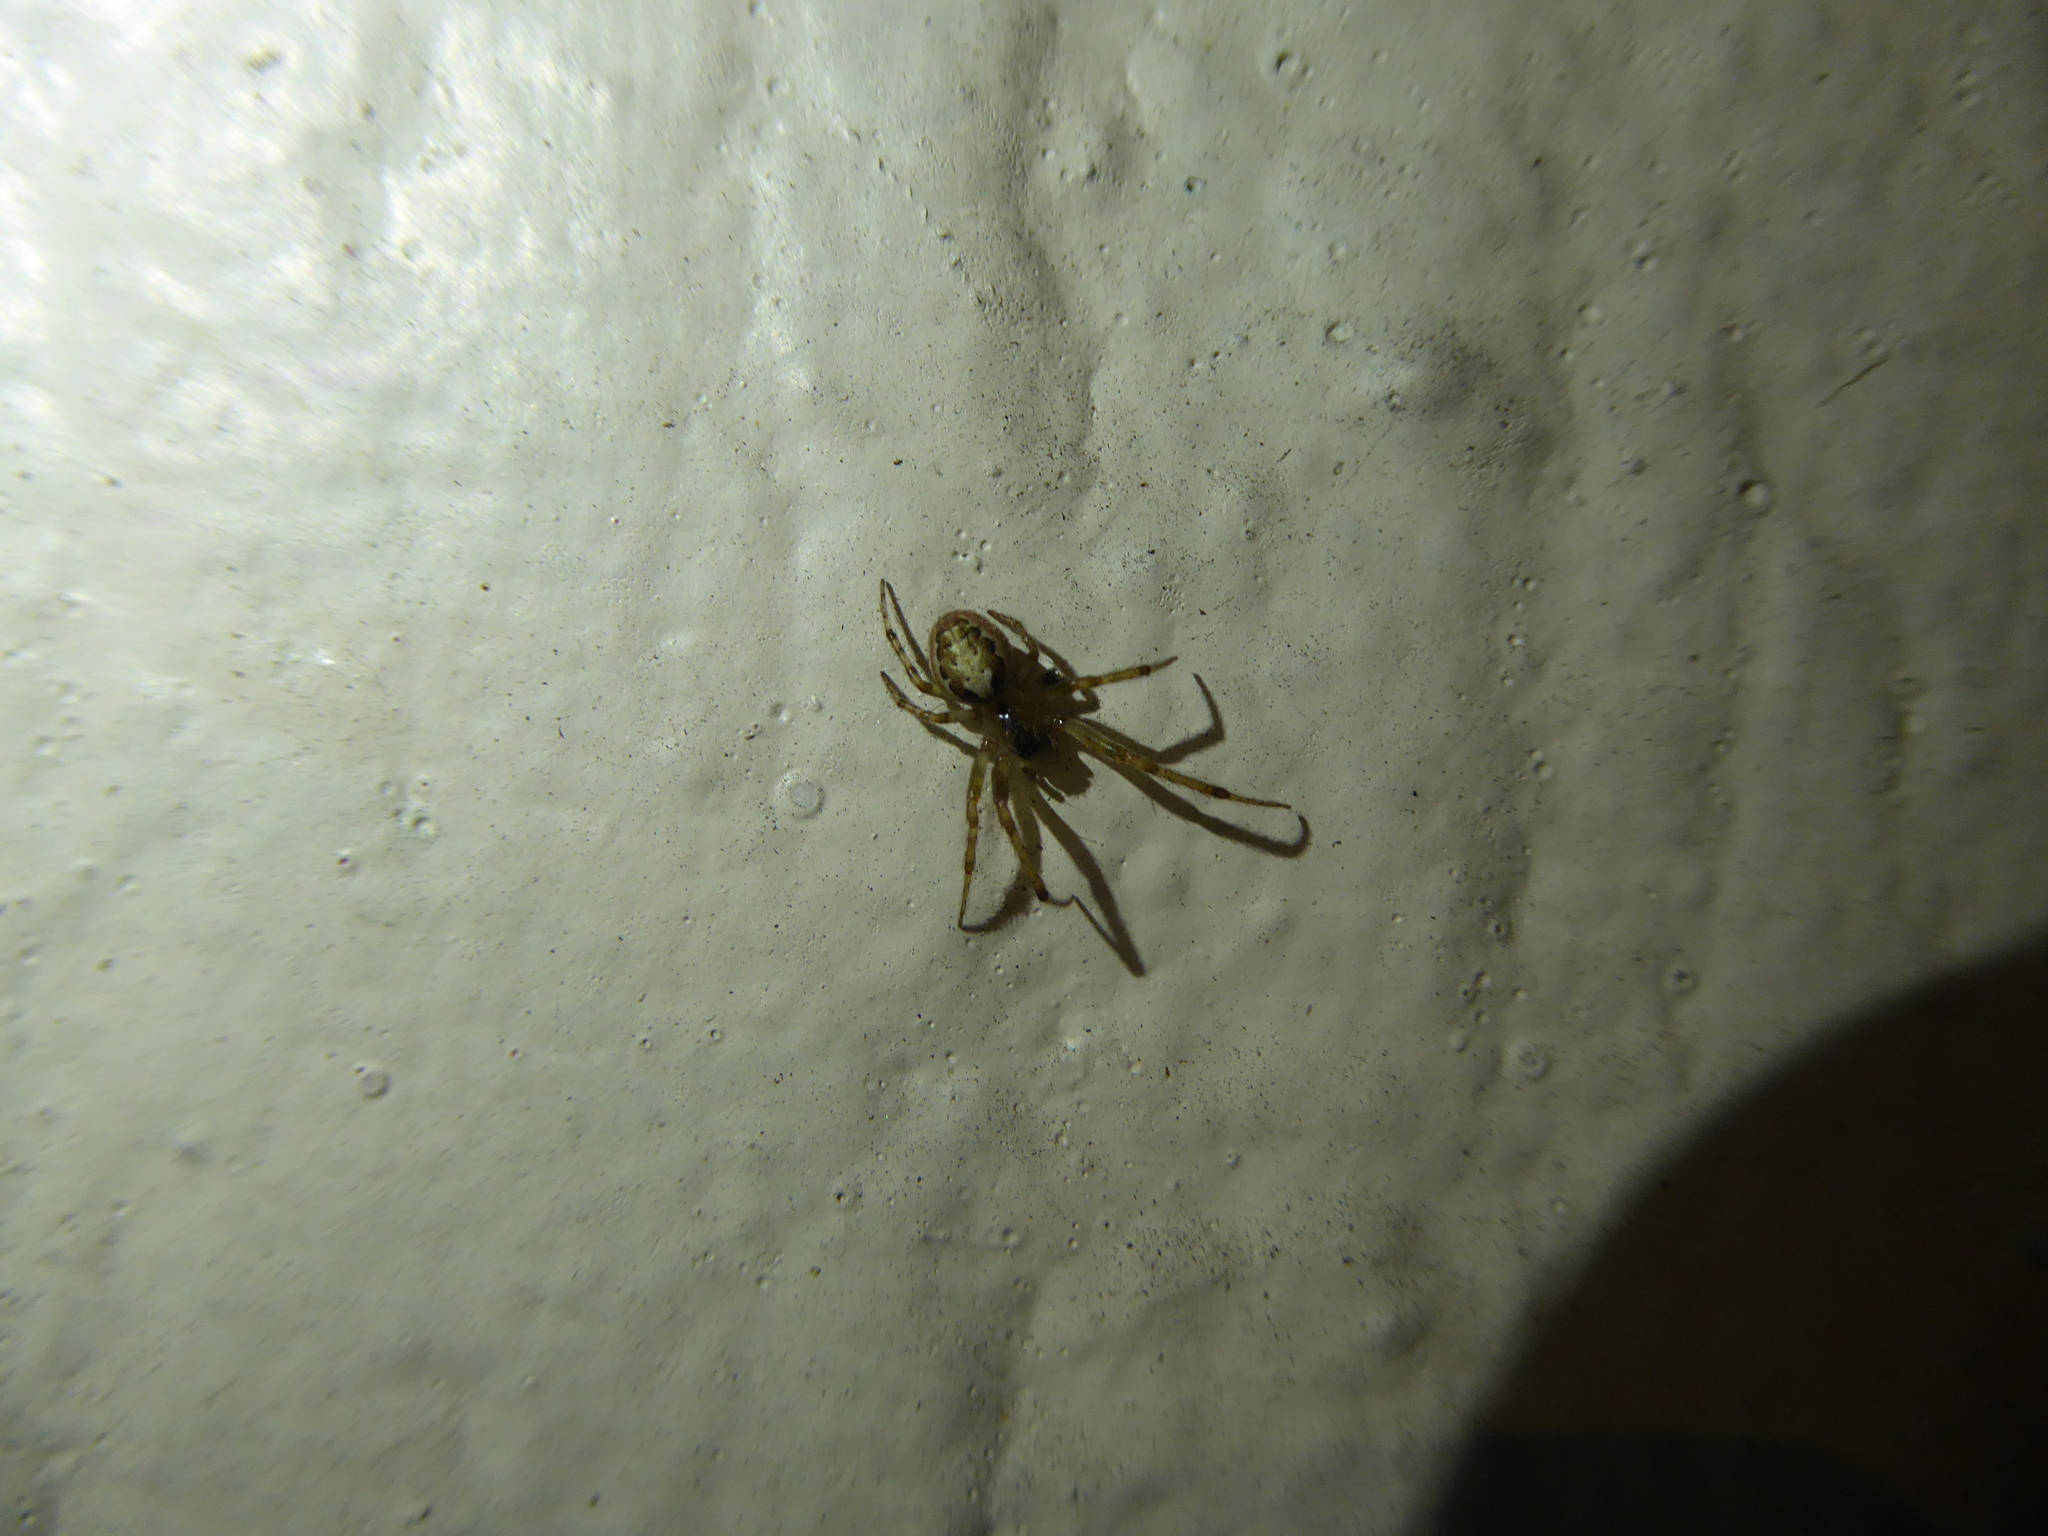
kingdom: Animalia
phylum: Arthropoda
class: Arachnida
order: Araneae
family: Araneidae
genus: Zygiella
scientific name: Zygiella
